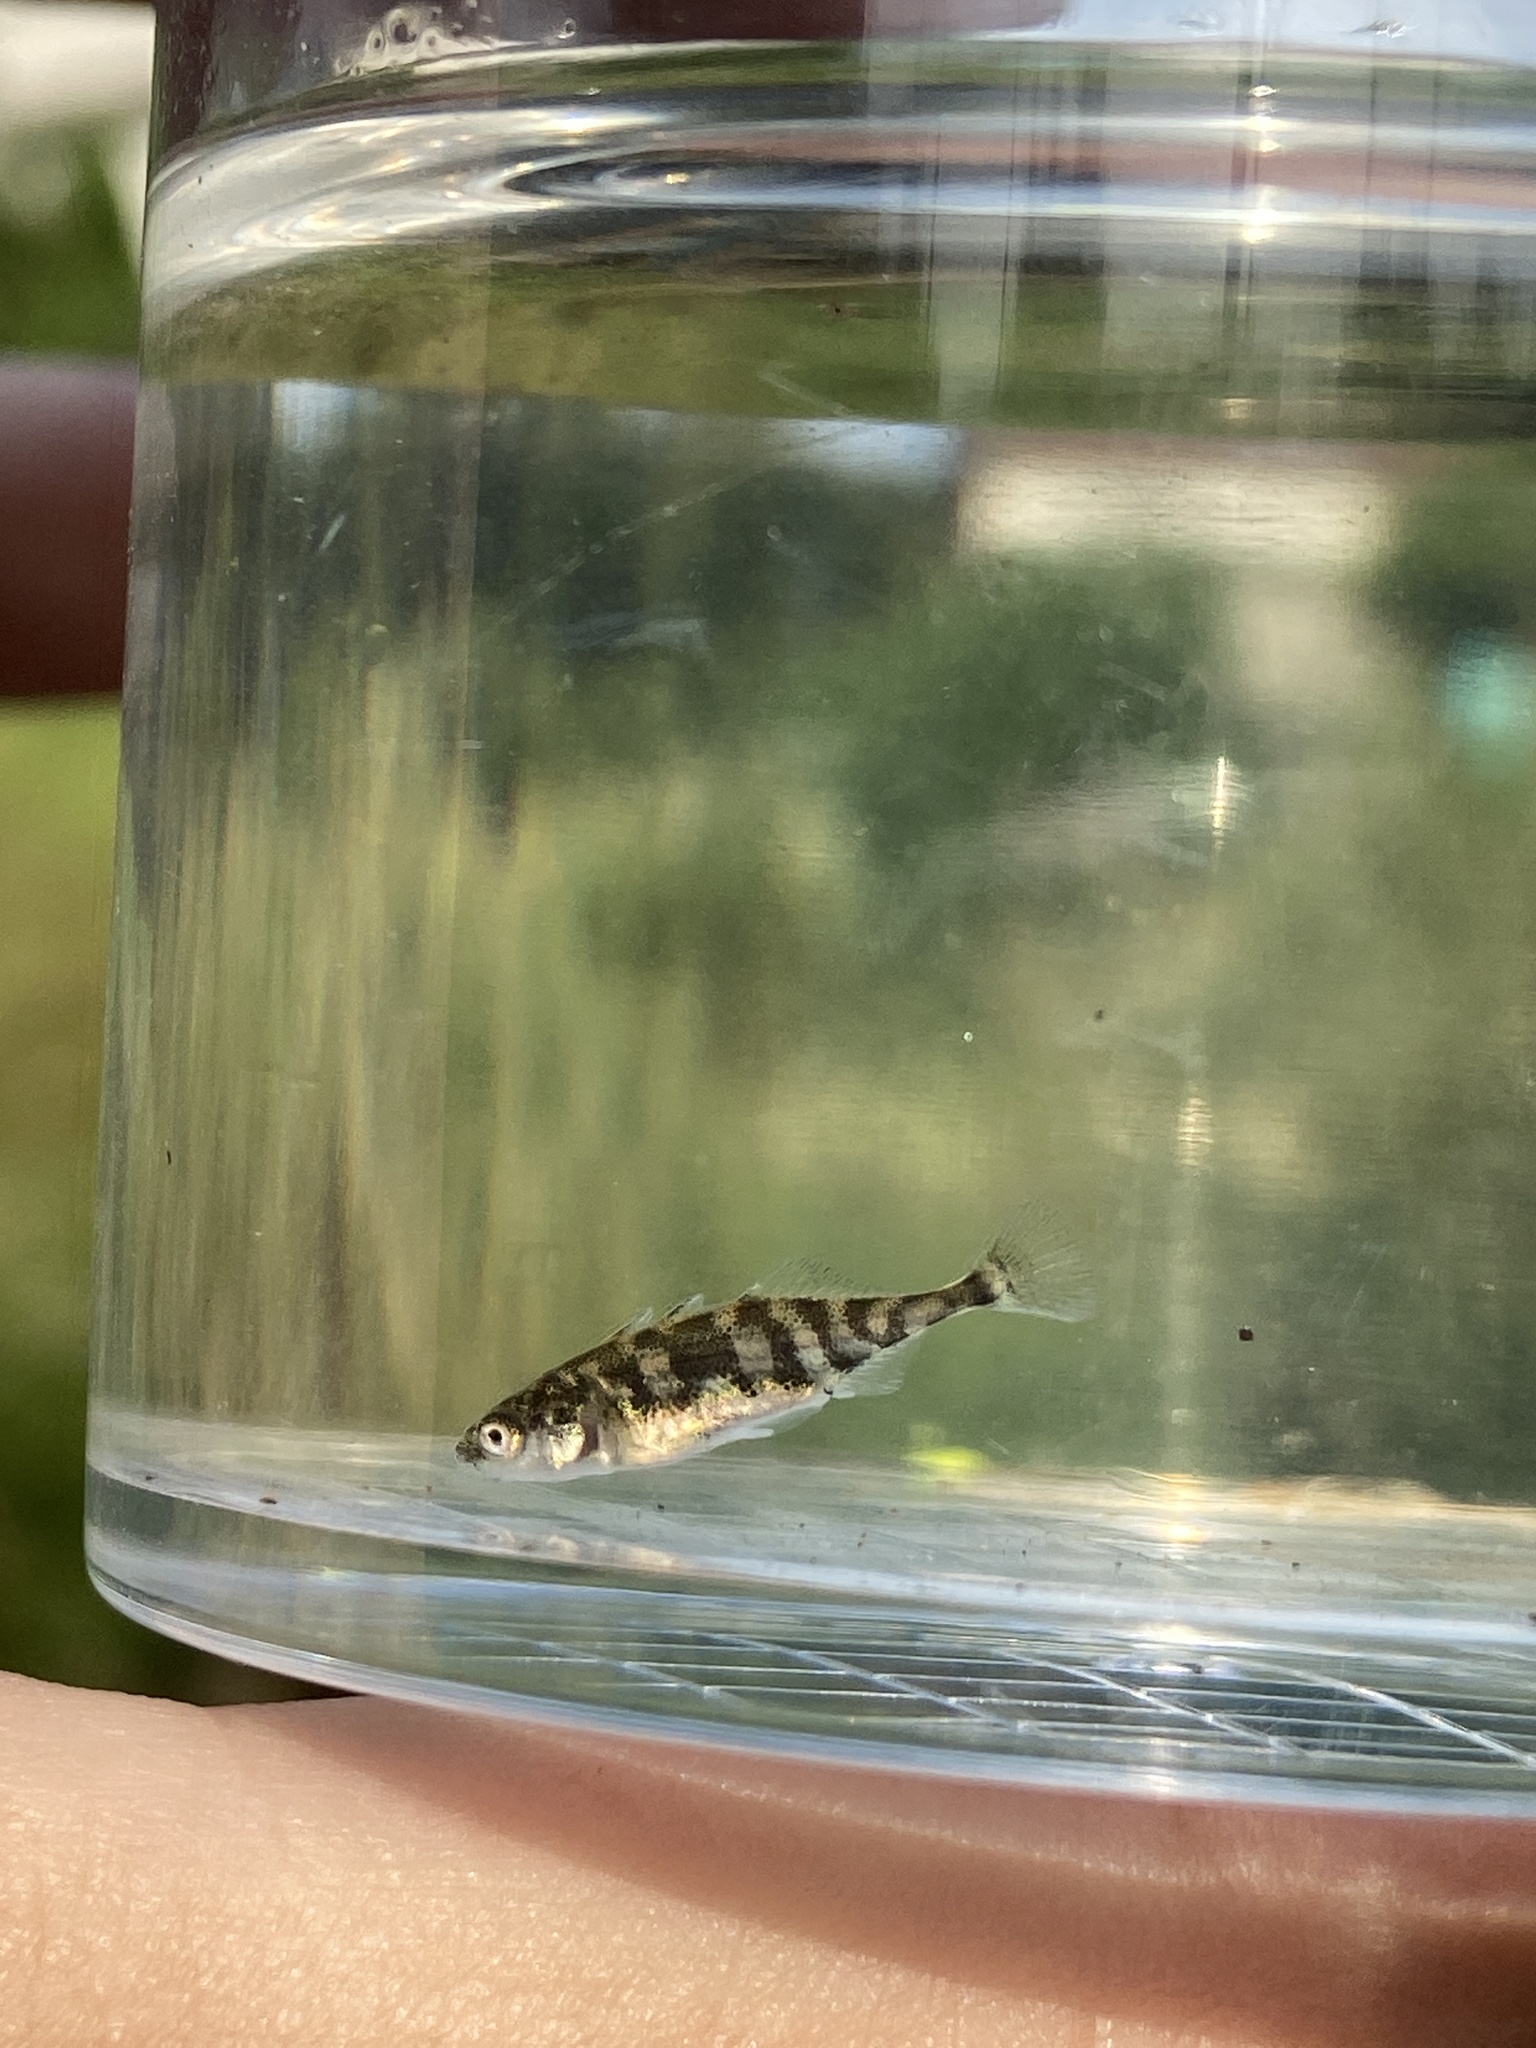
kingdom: Animalia
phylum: Chordata
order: Gasterosteiformes
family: Gasterosteidae
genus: Gasterosteus
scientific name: Gasterosteus aculeatus
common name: Three-spined stickleback
